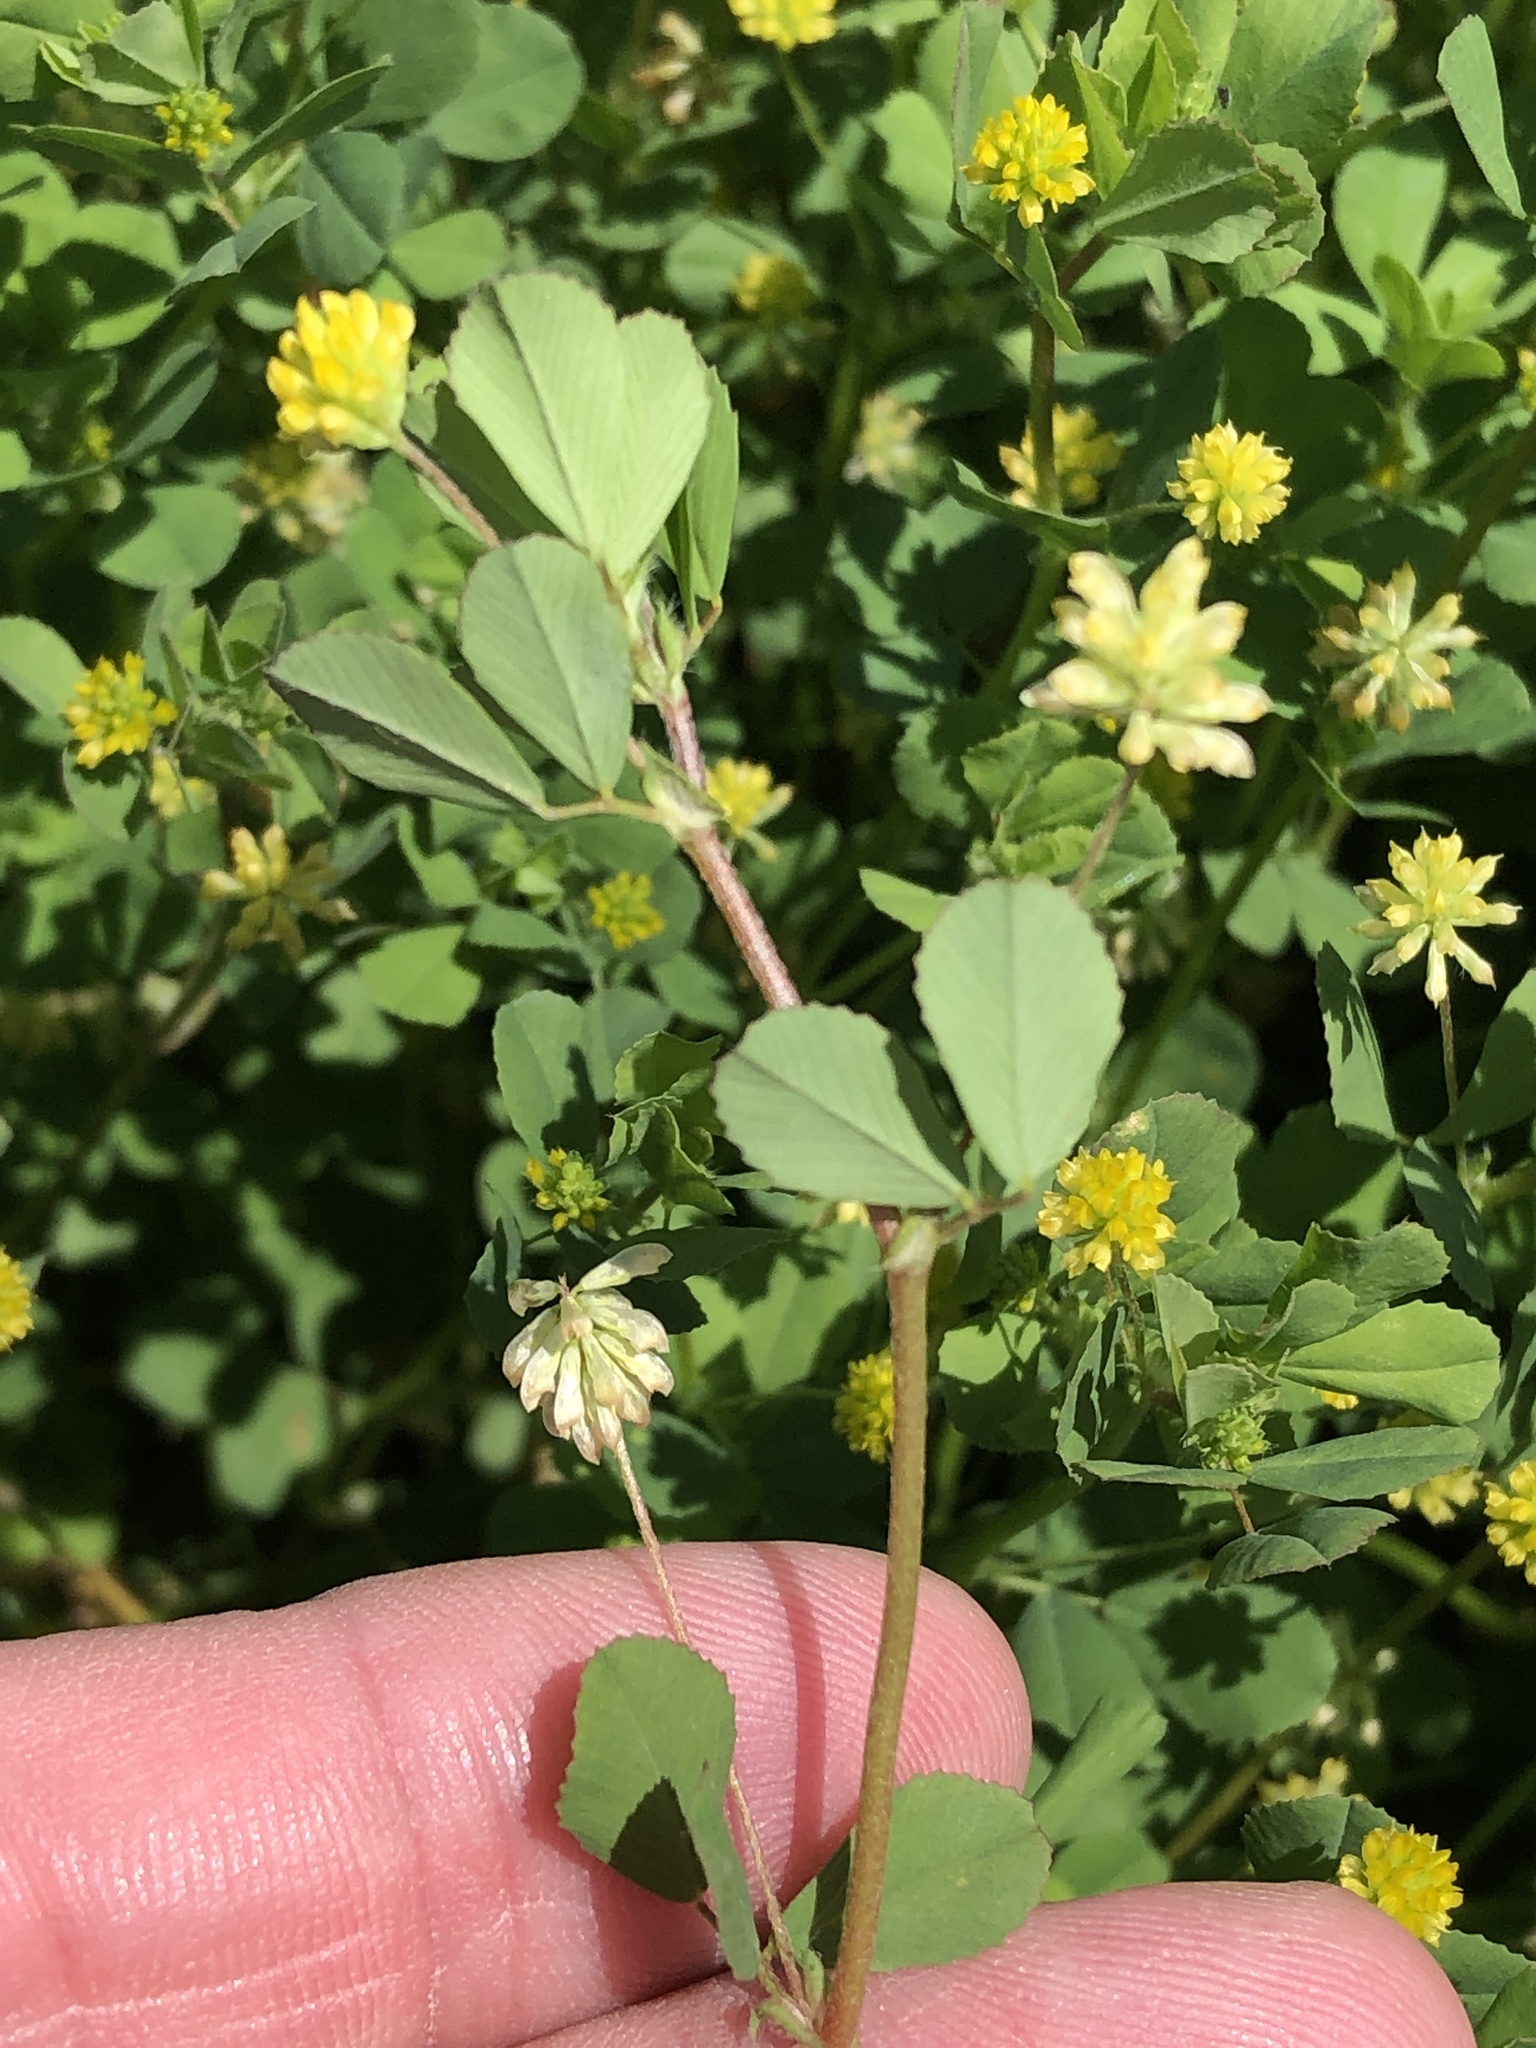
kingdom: Plantae
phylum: Tracheophyta
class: Magnoliopsida
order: Fabales
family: Fabaceae
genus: Trifolium
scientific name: Trifolium dubium
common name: Suckling clover
